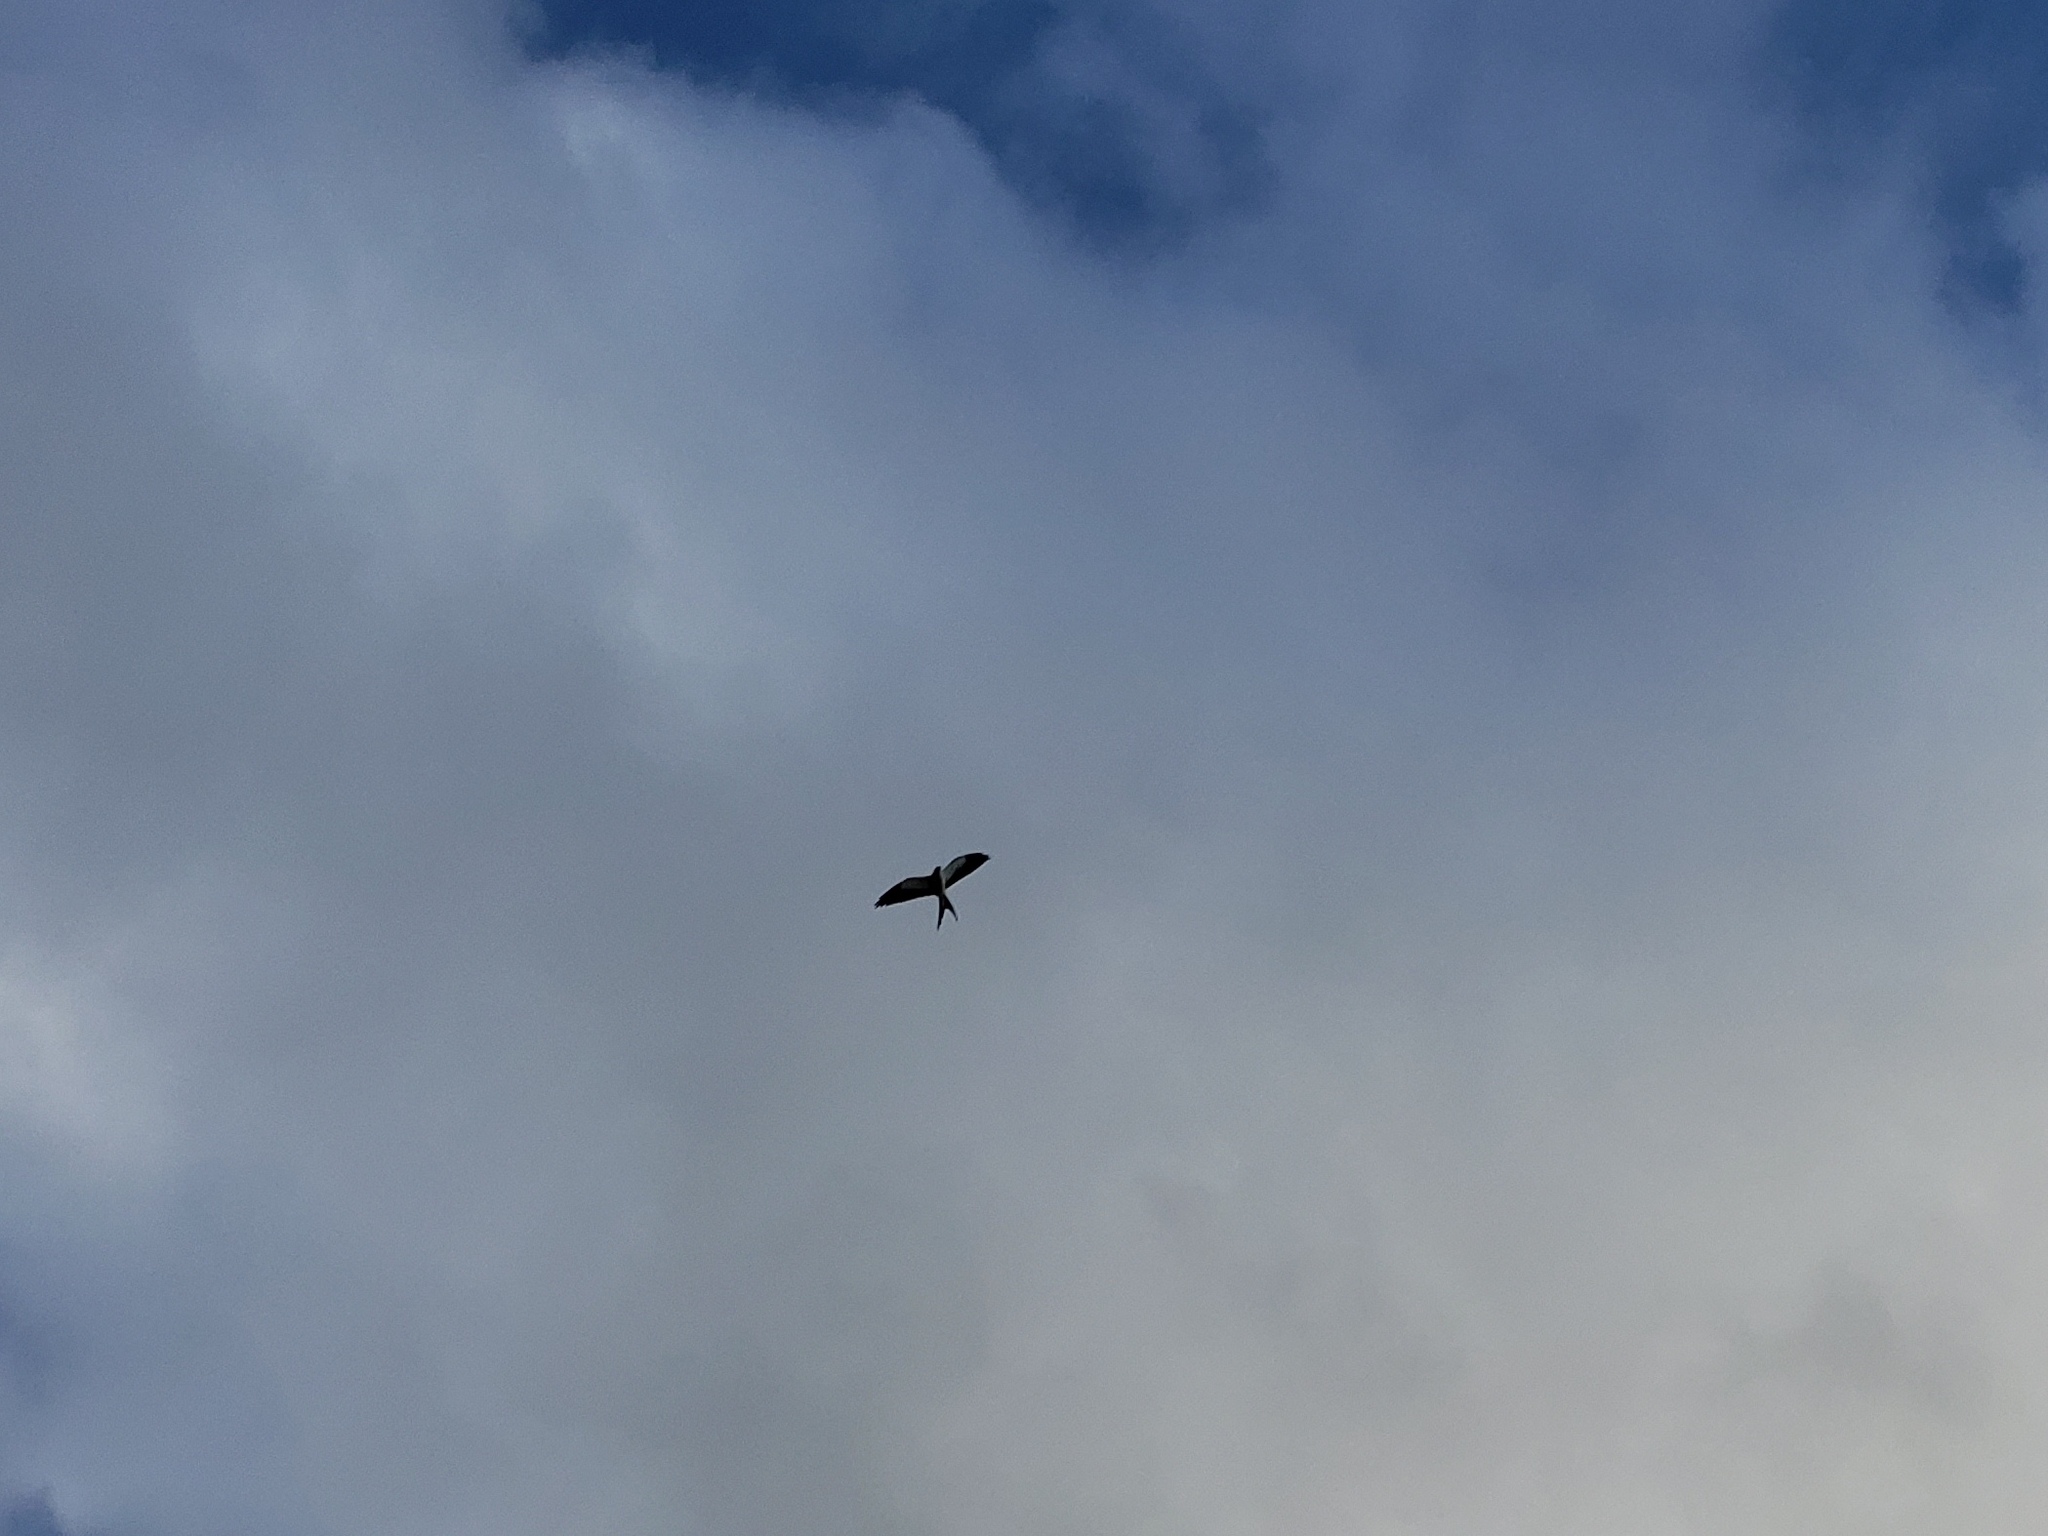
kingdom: Animalia
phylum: Chordata
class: Aves
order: Accipitriformes
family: Accipitridae
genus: Elanoides
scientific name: Elanoides forficatus
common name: Swallow-tailed kite
